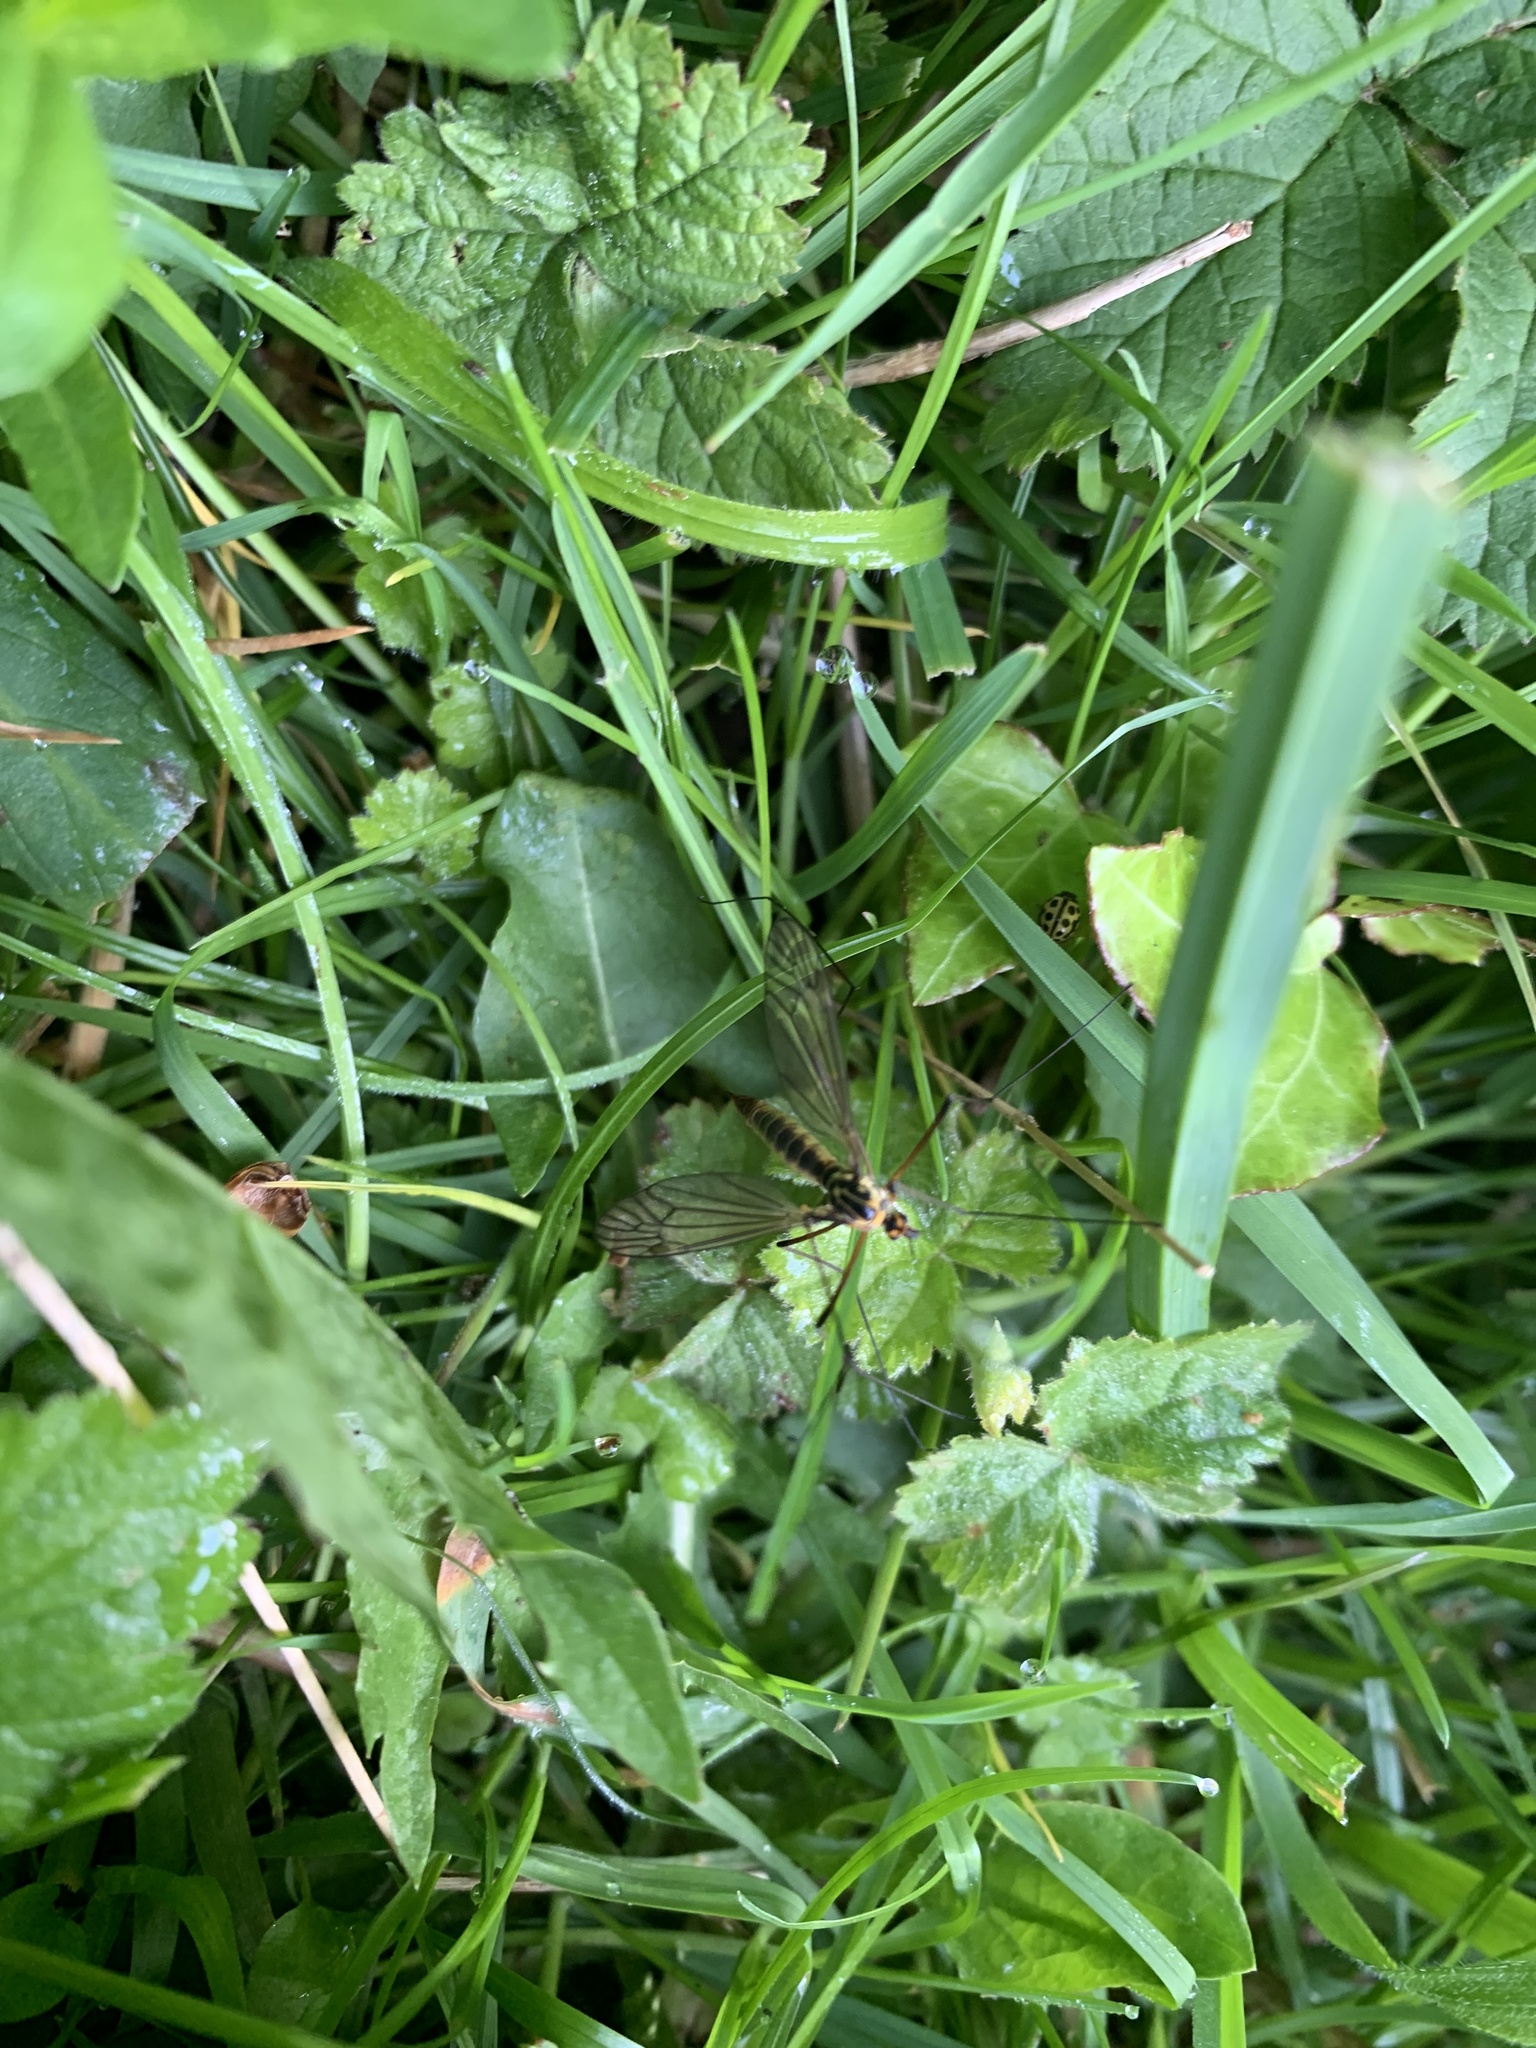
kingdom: Animalia
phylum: Arthropoda
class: Insecta
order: Diptera
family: Tipulidae
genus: Nephrotoma
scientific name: Nephrotoma appendiculata
